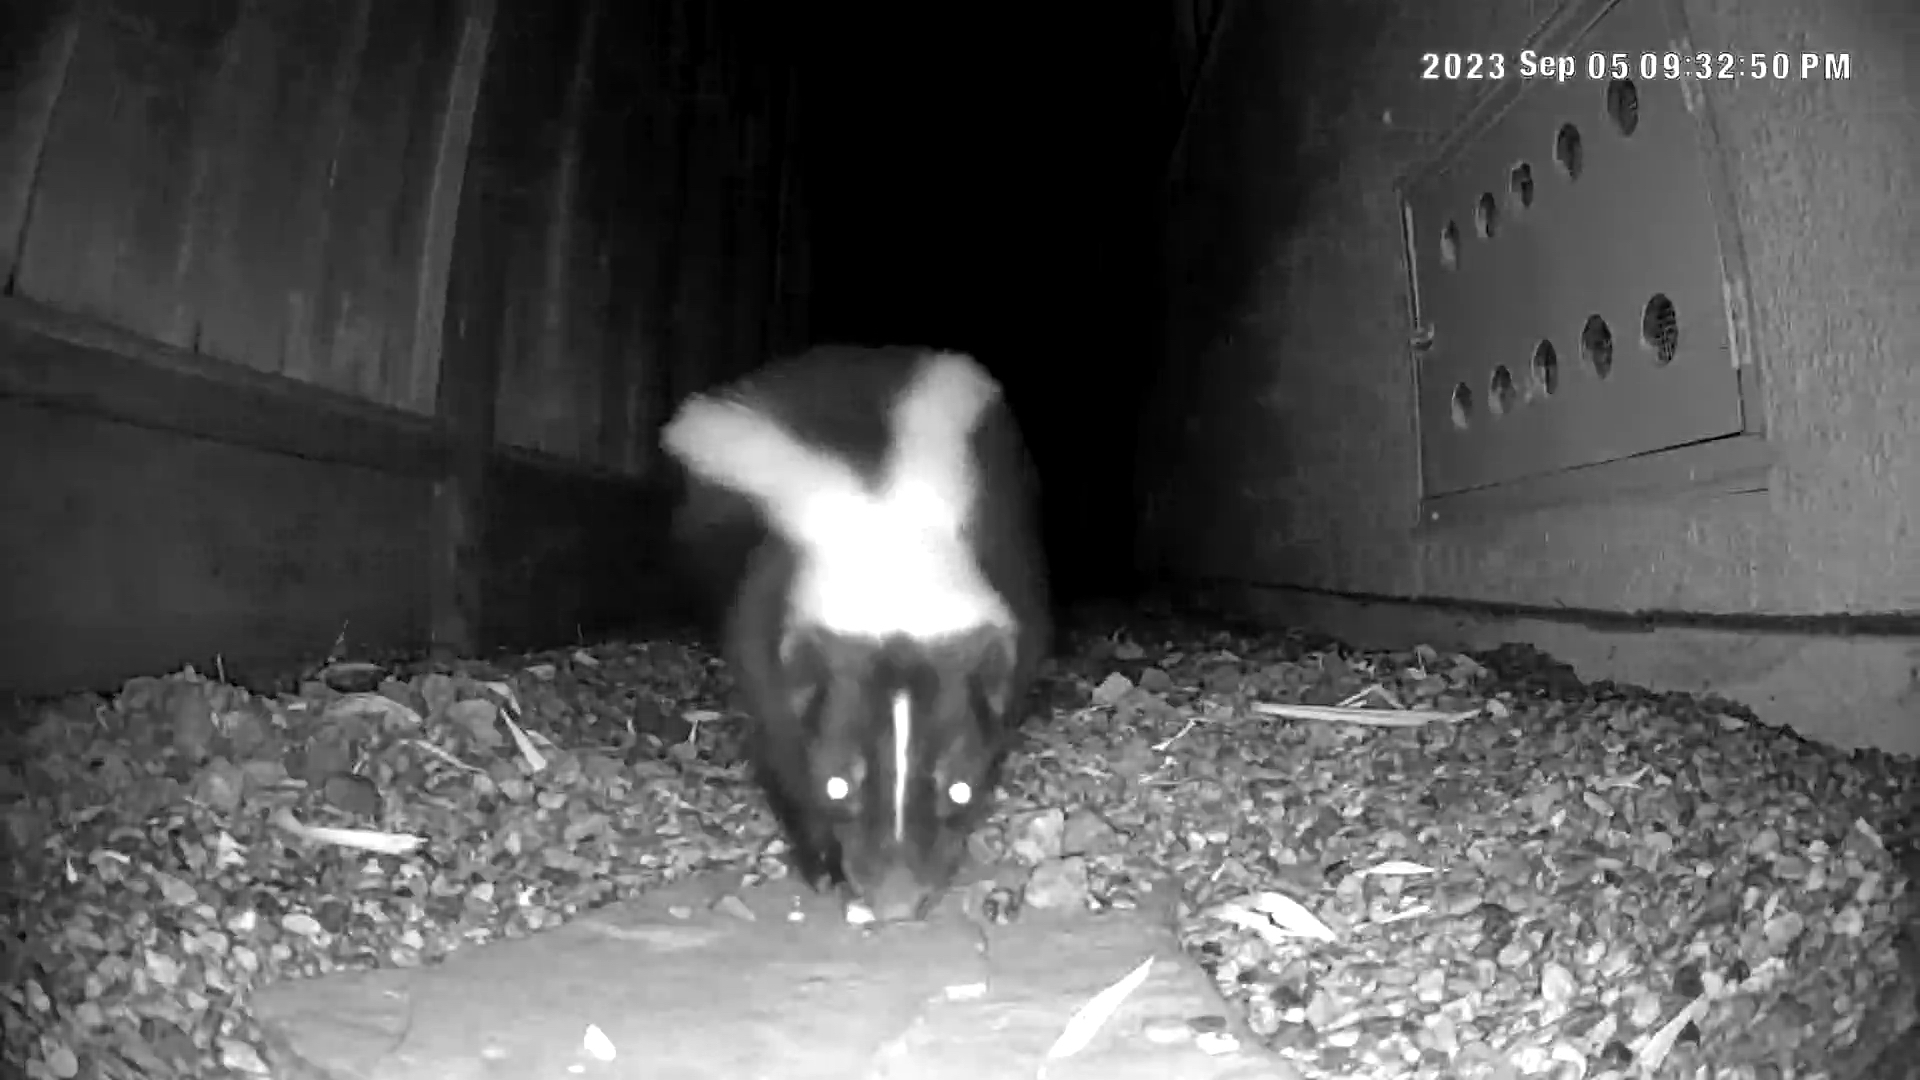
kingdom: Animalia
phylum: Chordata
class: Mammalia
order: Carnivora
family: Mephitidae
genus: Mephitis
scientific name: Mephitis mephitis
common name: Striped skunk
